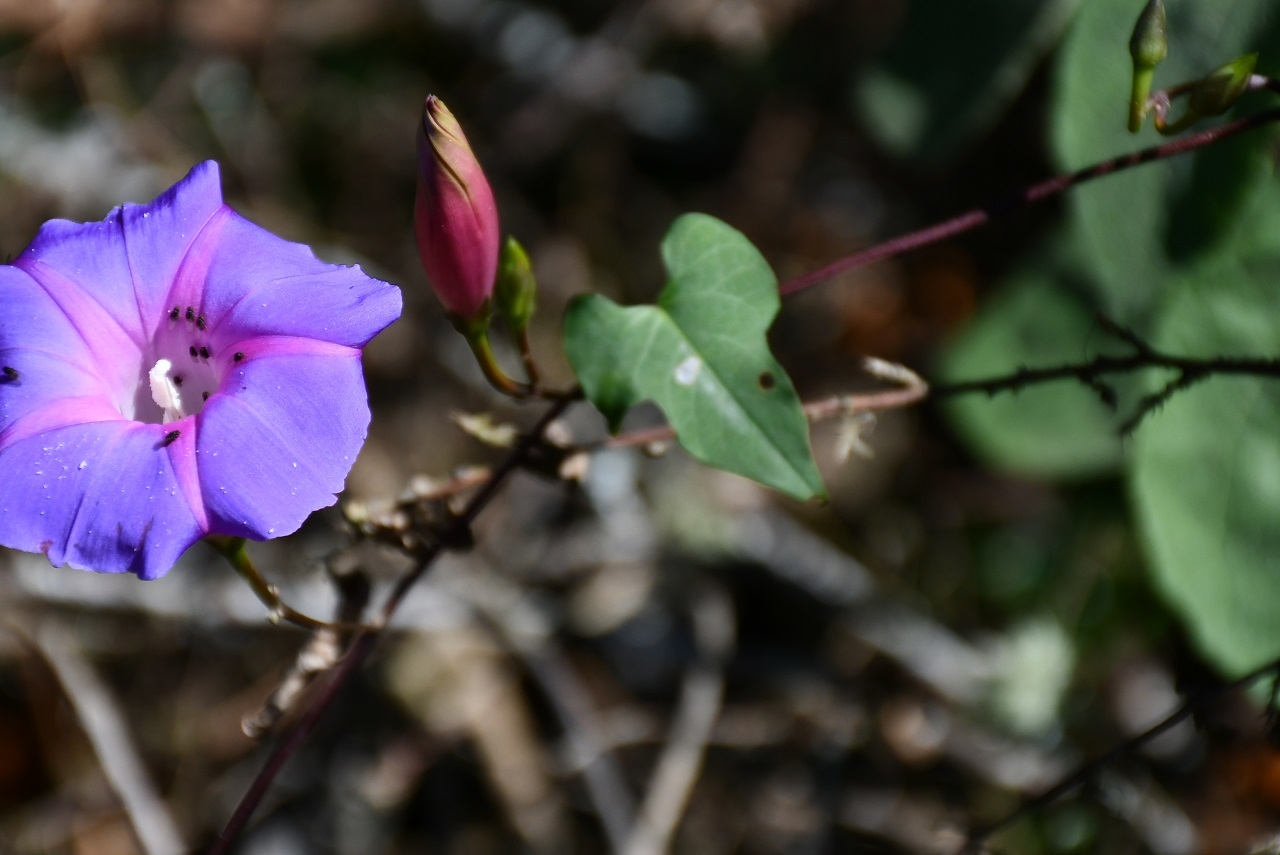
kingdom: Plantae
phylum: Tracheophyta
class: Magnoliopsida
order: Solanales
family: Convolvulaceae
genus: Ipomoea
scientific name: Ipomoea orizabensis
